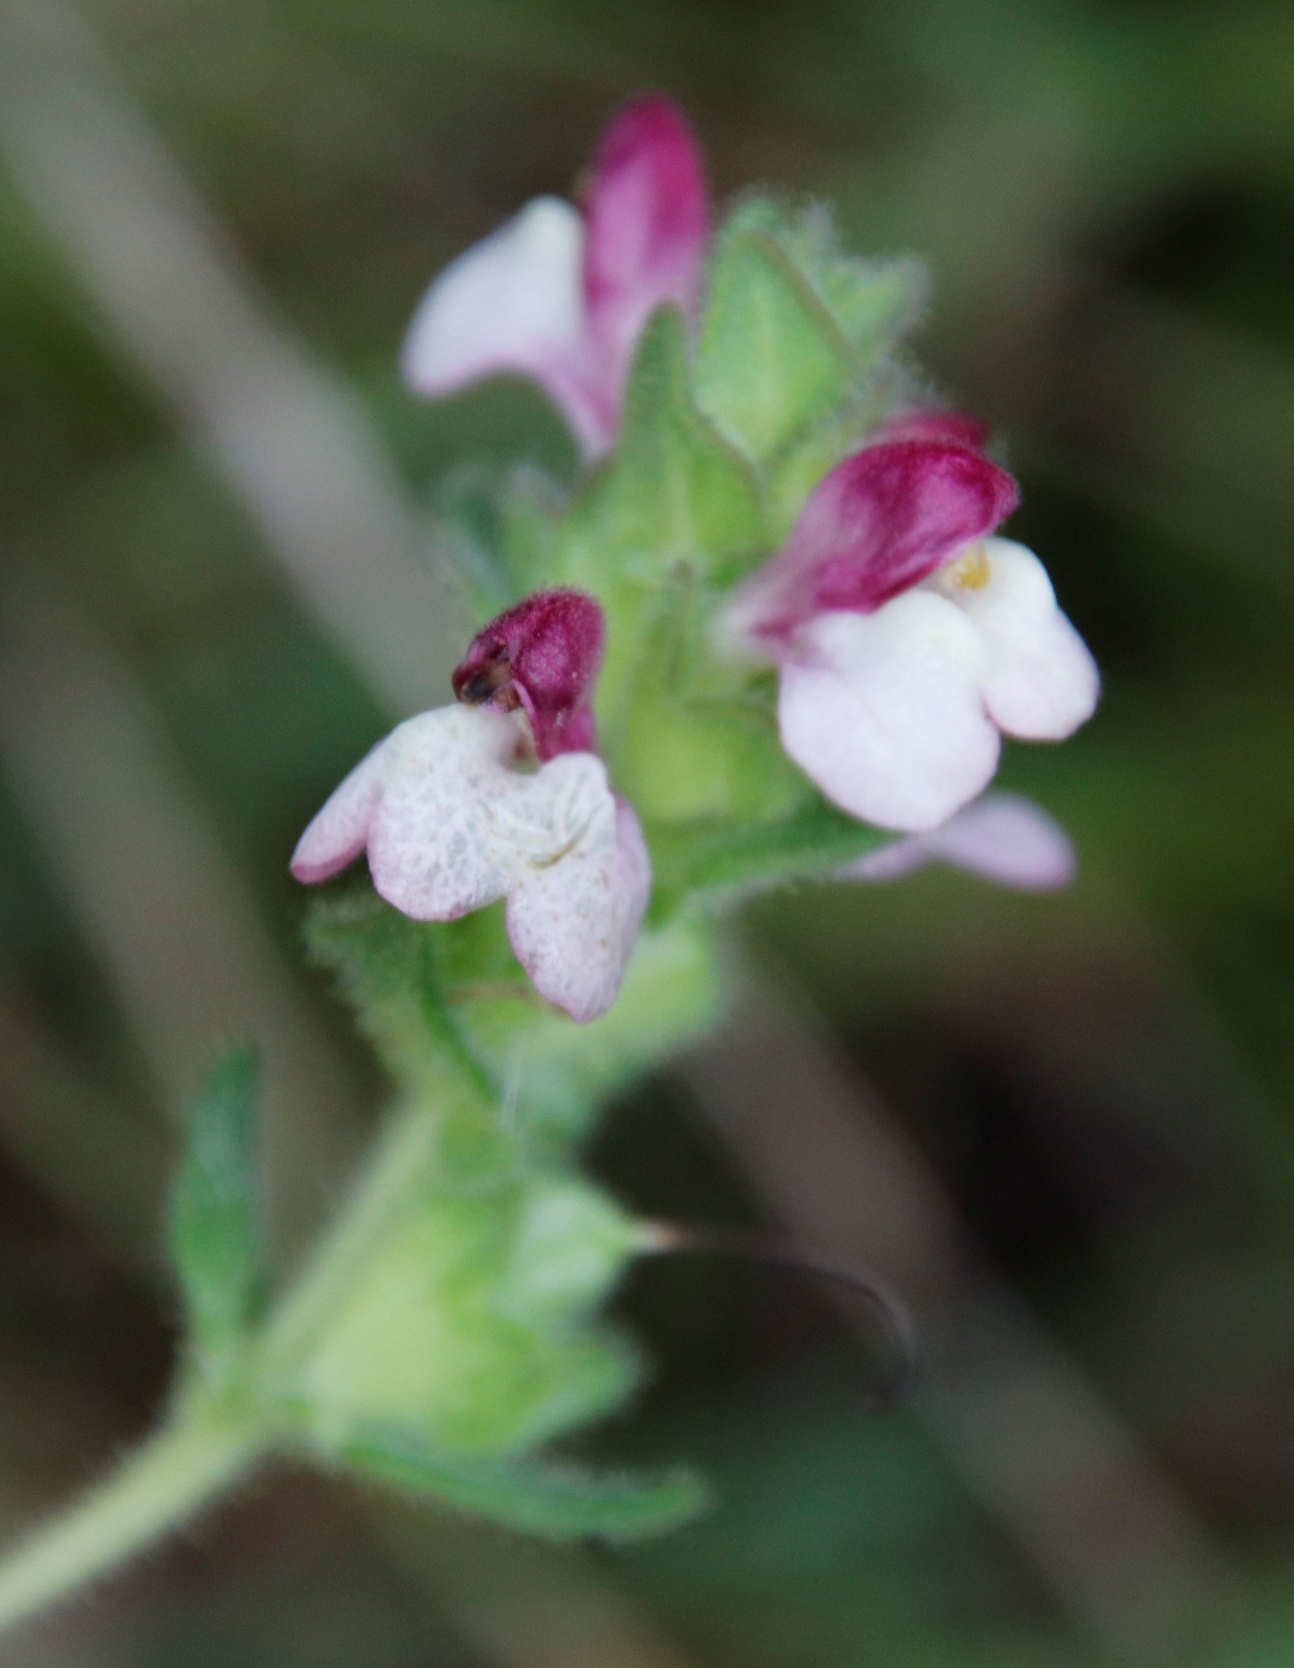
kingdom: Plantae
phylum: Tracheophyta
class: Magnoliopsida
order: Lamiales
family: Orobanchaceae
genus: Bellardia
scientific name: Bellardia trixago
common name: Mediterranean lineseed
